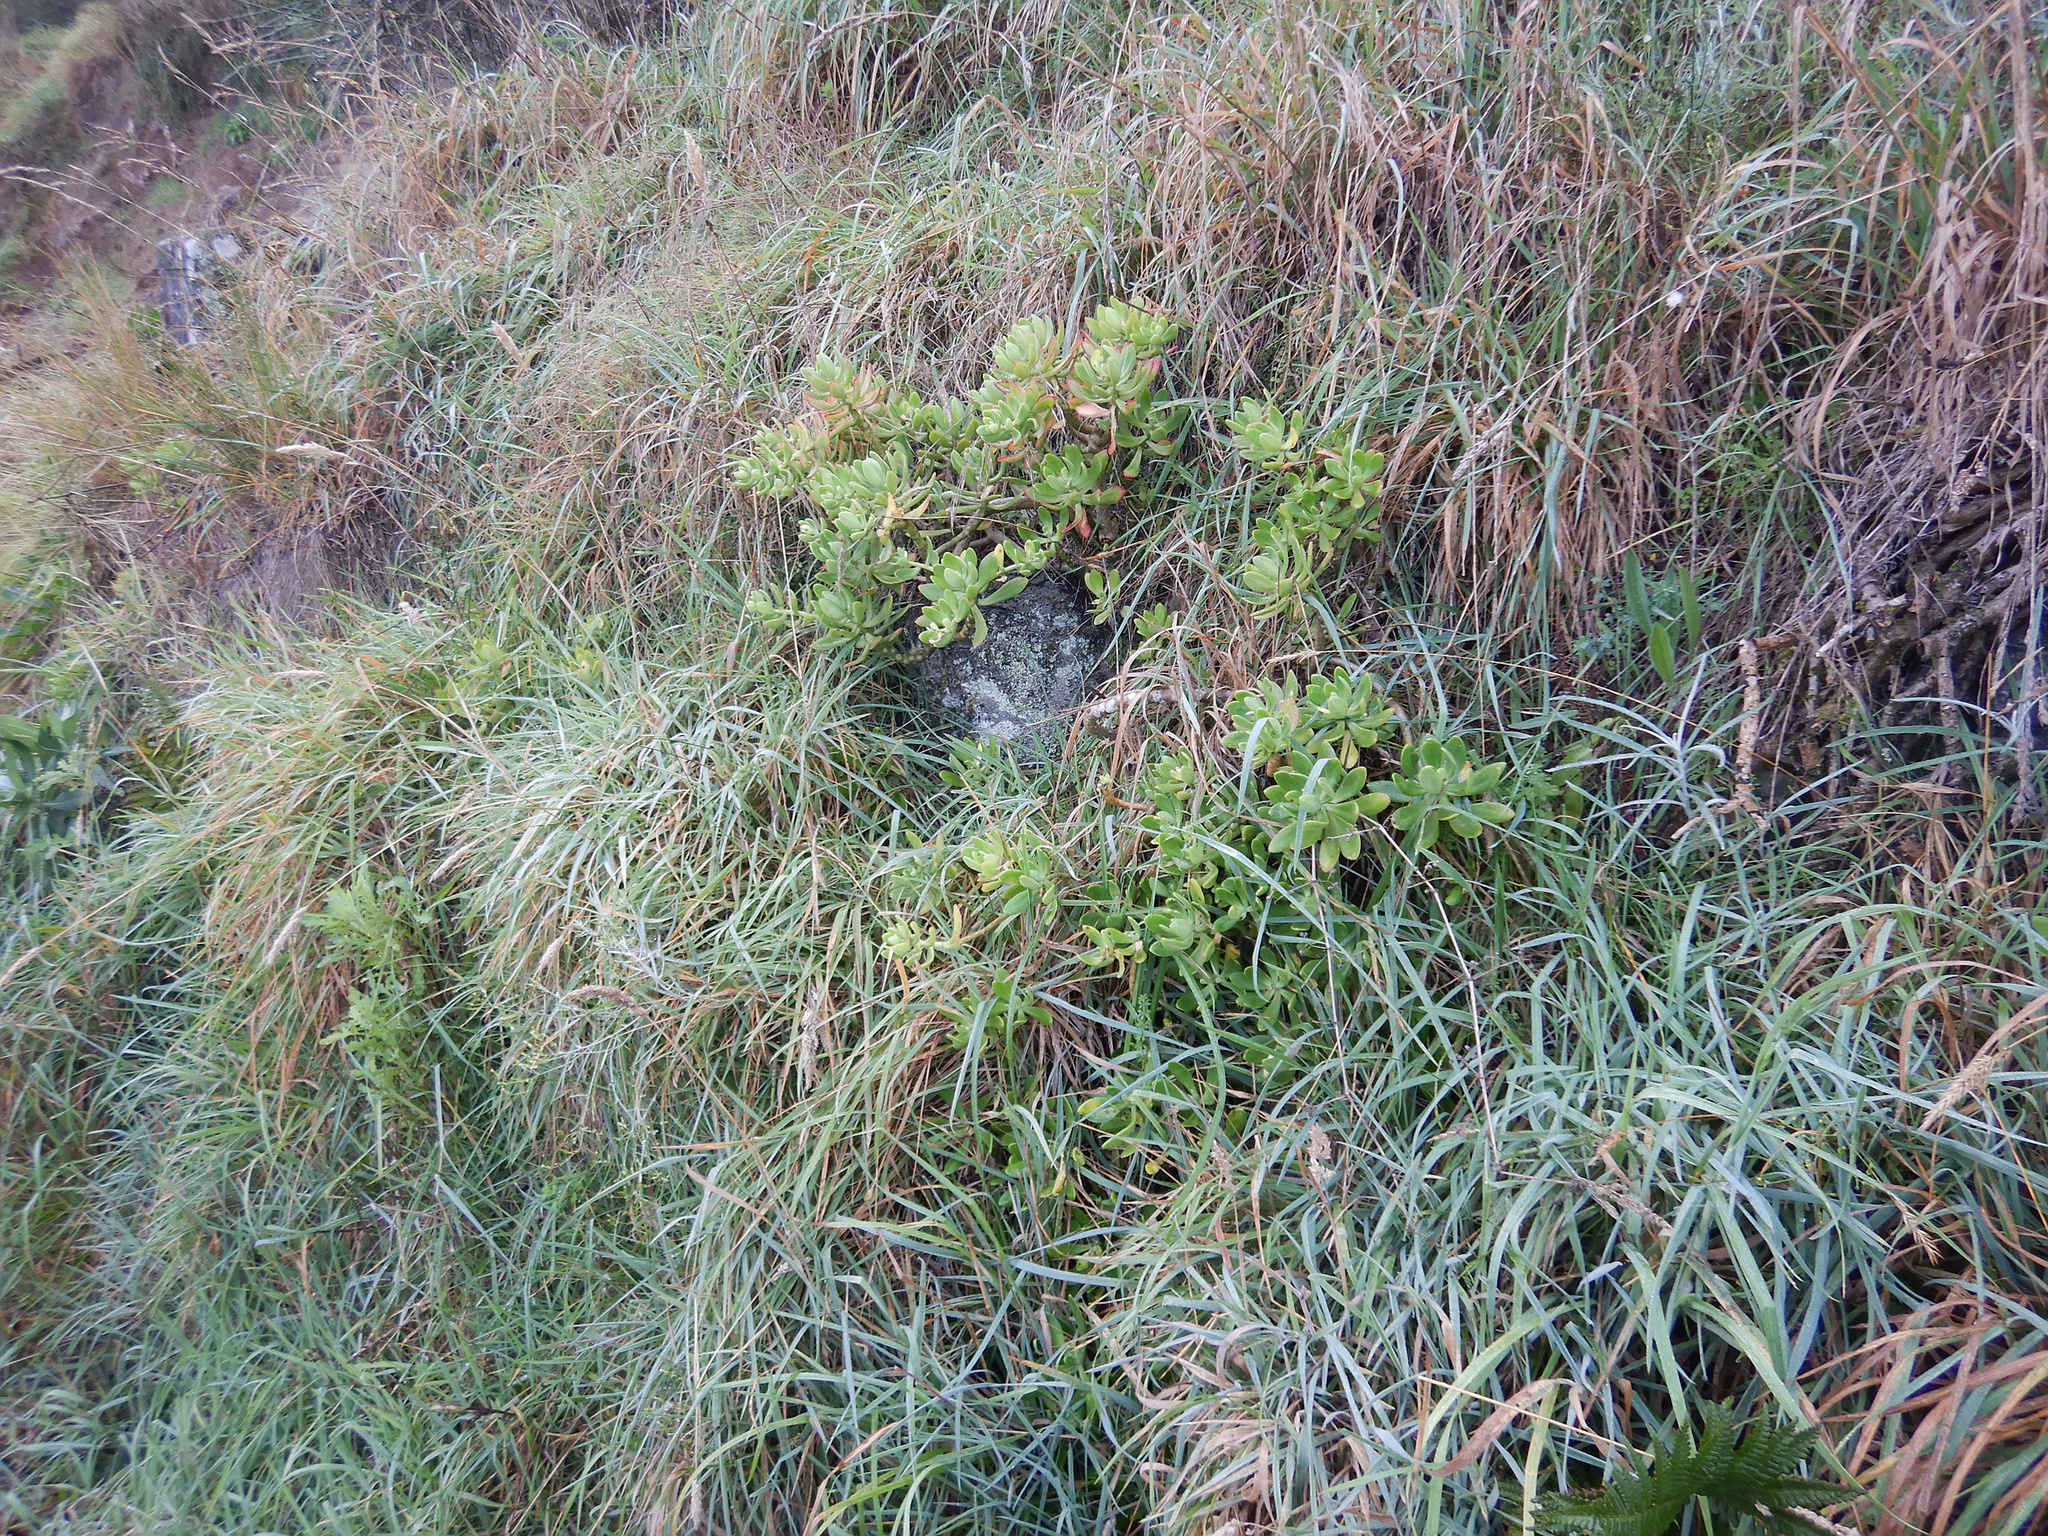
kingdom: Plantae
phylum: Tracheophyta
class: Magnoliopsida
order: Saxifragales
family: Crassulaceae
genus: Sedum
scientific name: Sedum praealtum
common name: Greater mexican-stonecrop
